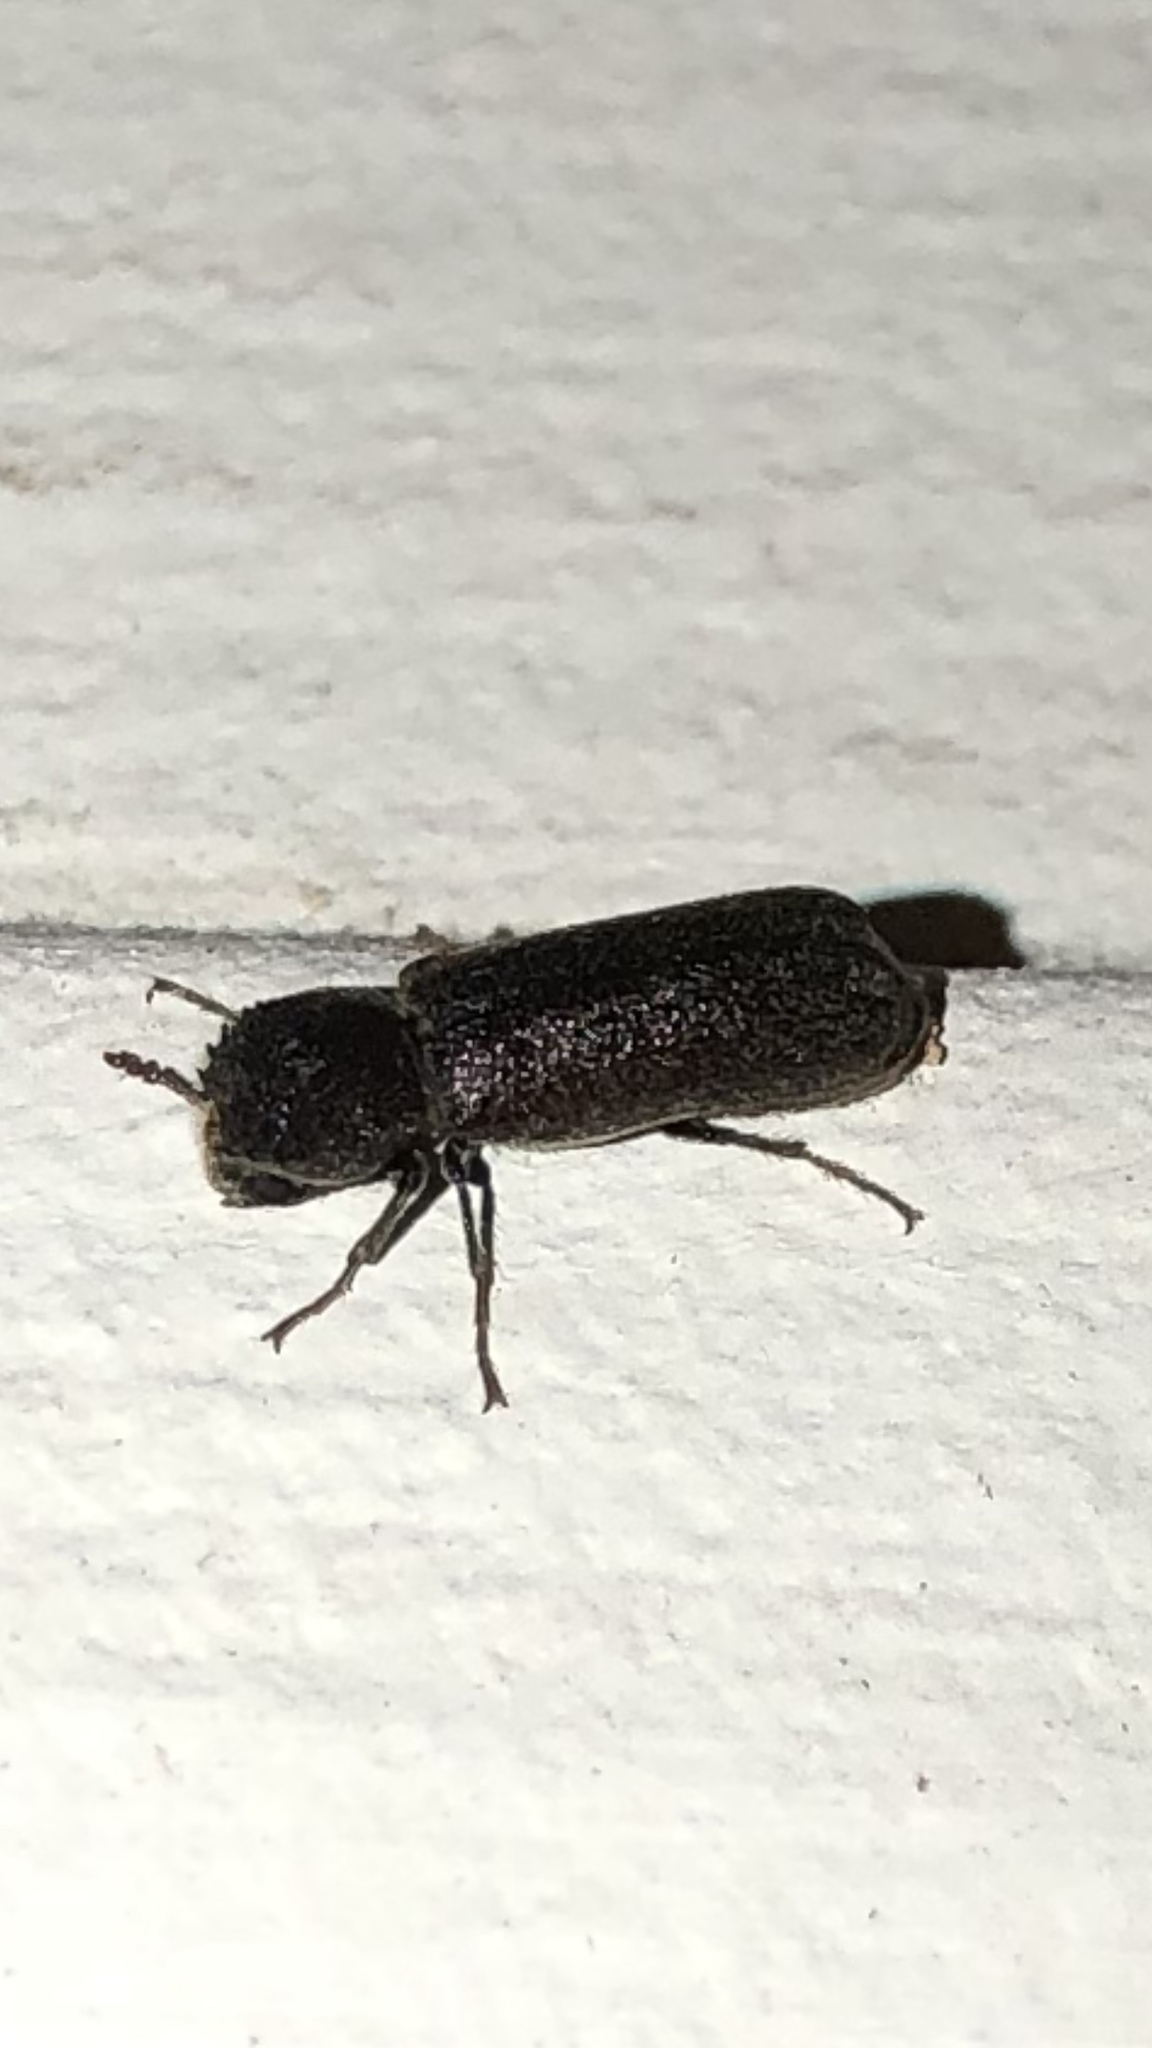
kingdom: Animalia
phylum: Arthropoda
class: Insecta
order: Coleoptera
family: Bostrichidae
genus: Amphicerus
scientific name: Amphicerus bicaudatus
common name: Apple twig borer
